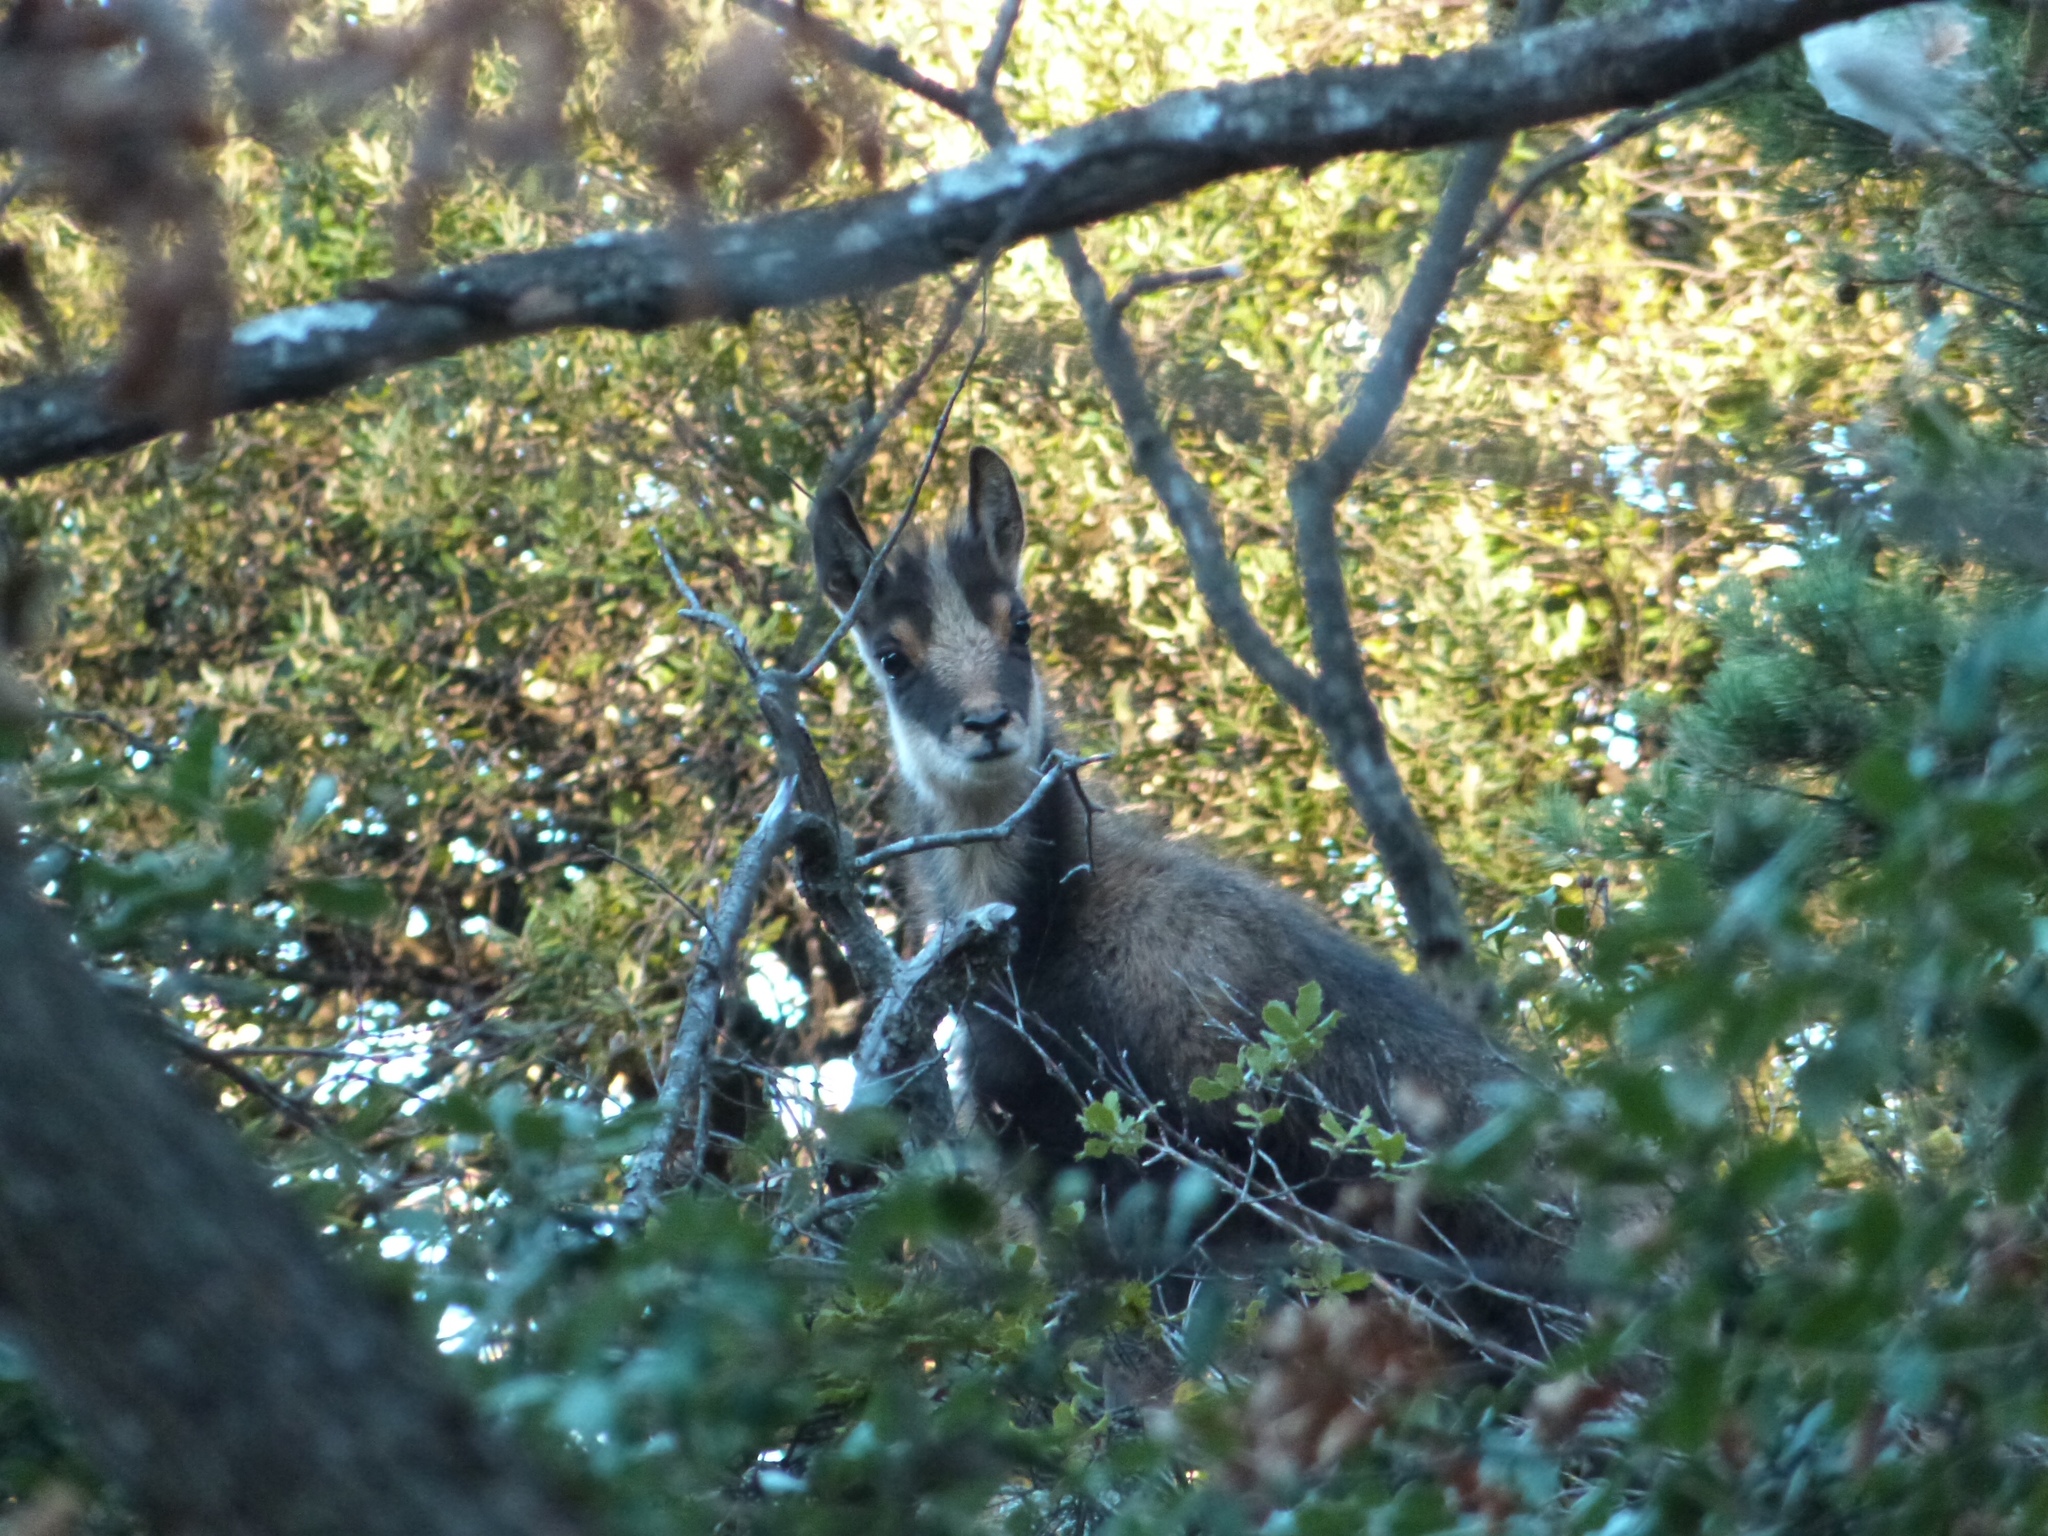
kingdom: Animalia
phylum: Chordata
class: Mammalia
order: Artiodactyla
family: Bovidae
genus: Rupicapra
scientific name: Rupicapra pyrenaica
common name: Pyrenean chamois
